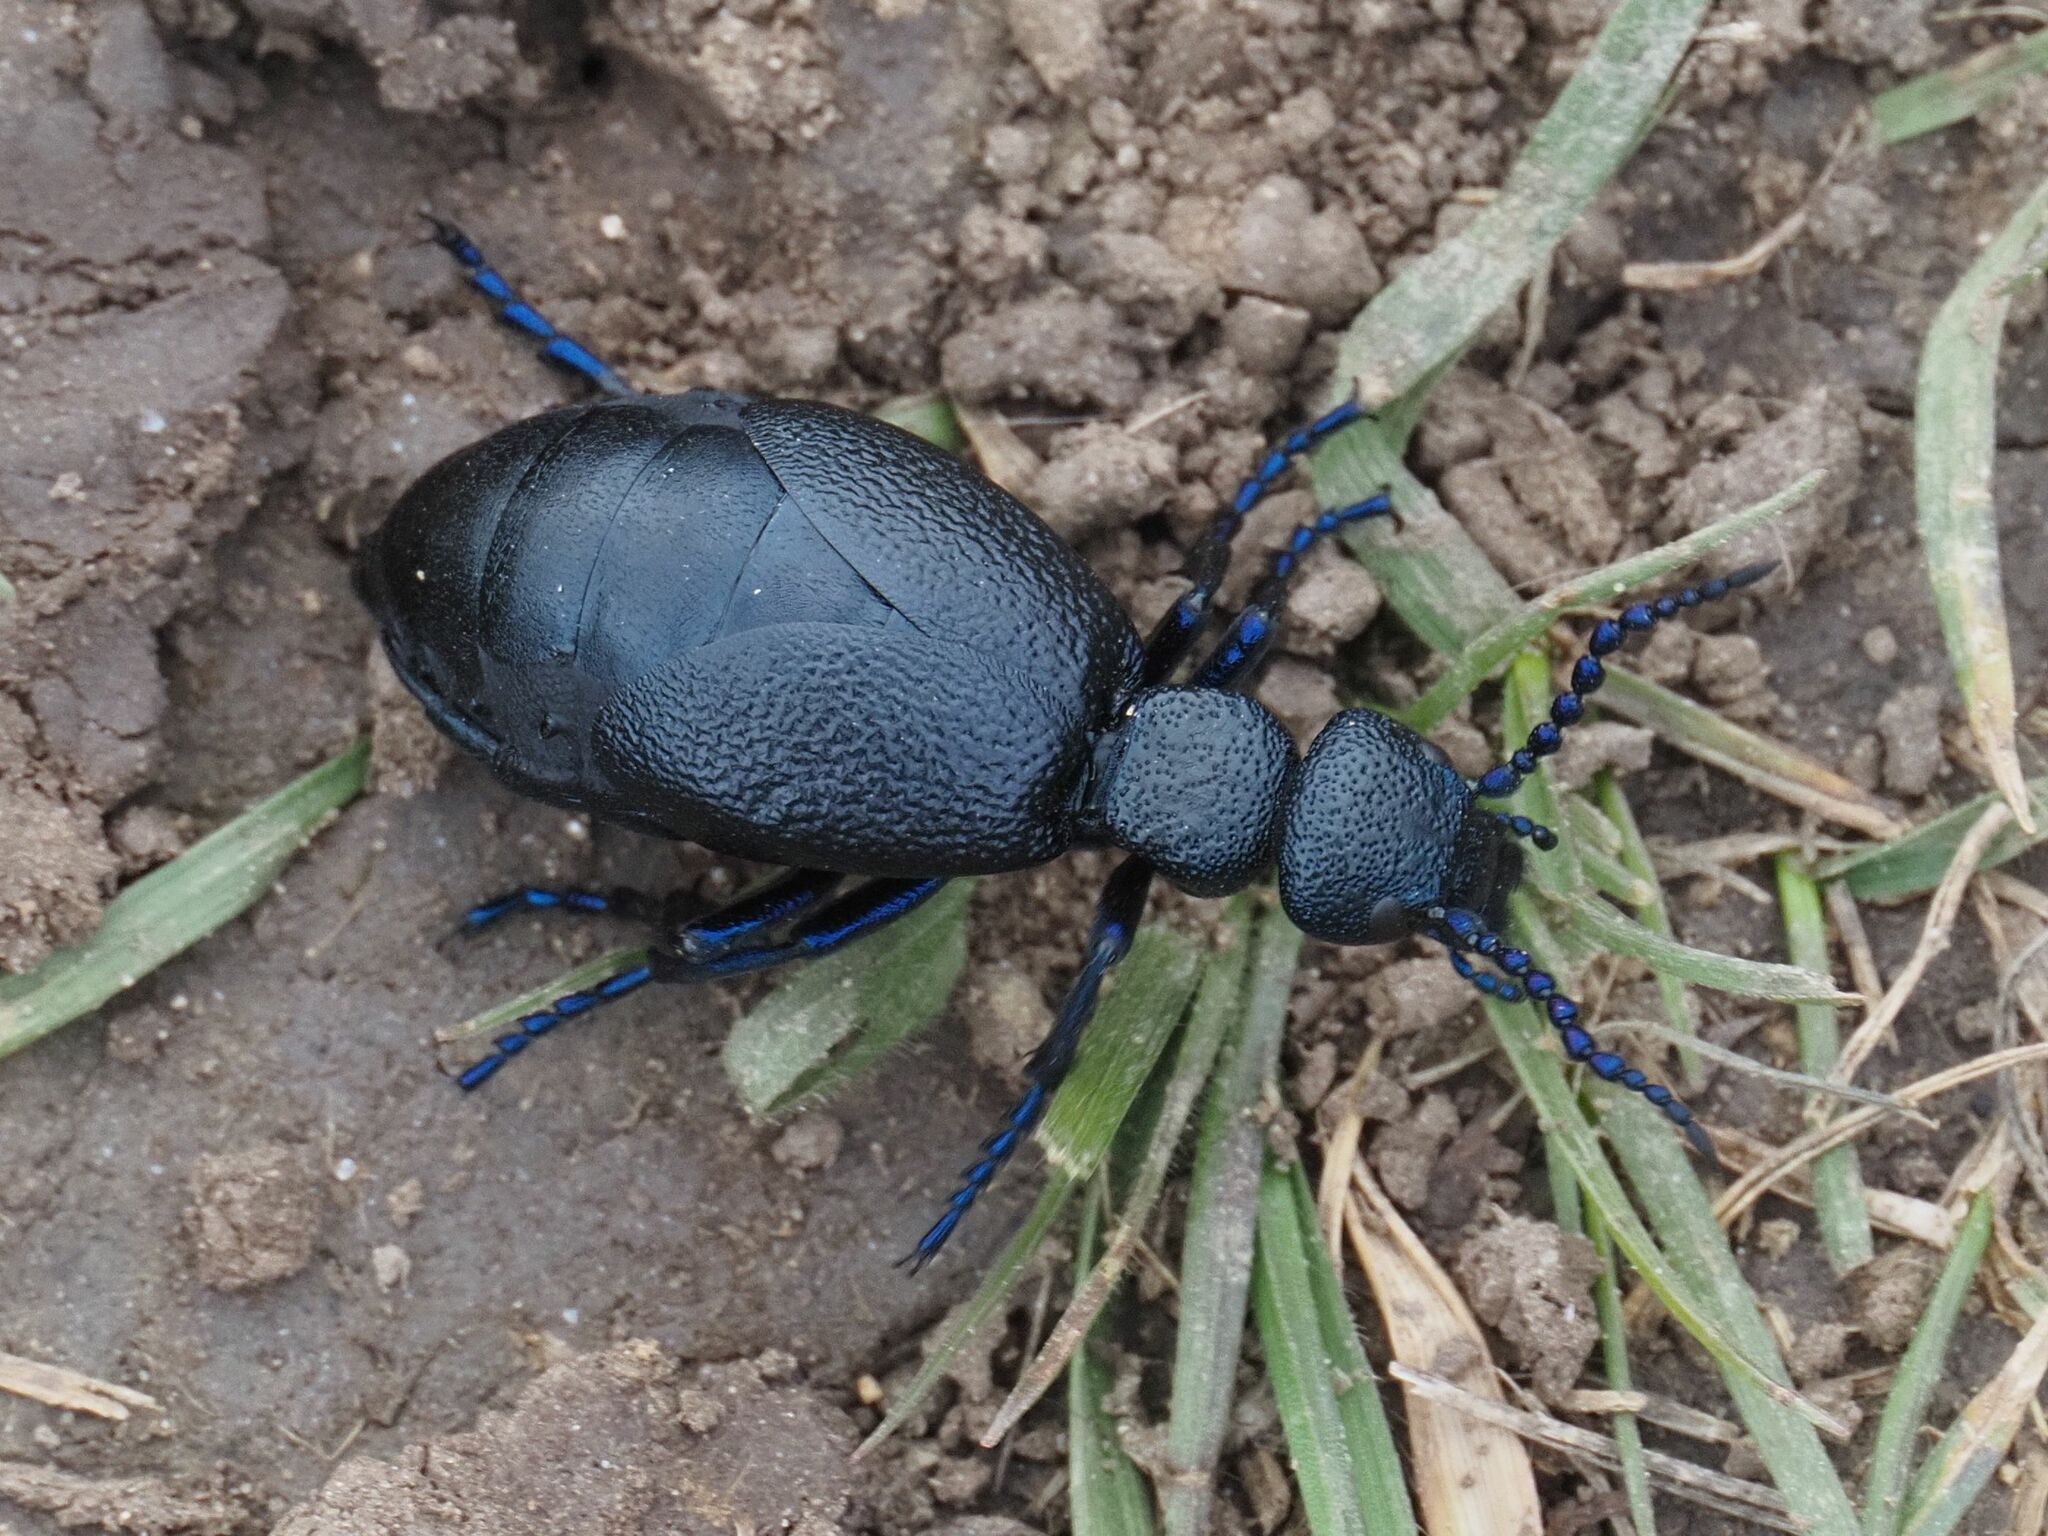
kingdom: Animalia
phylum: Arthropoda
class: Insecta
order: Coleoptera
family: Meloidae
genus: Meloe
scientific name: Meloe proscarabaeus
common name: Black oil-beetle
